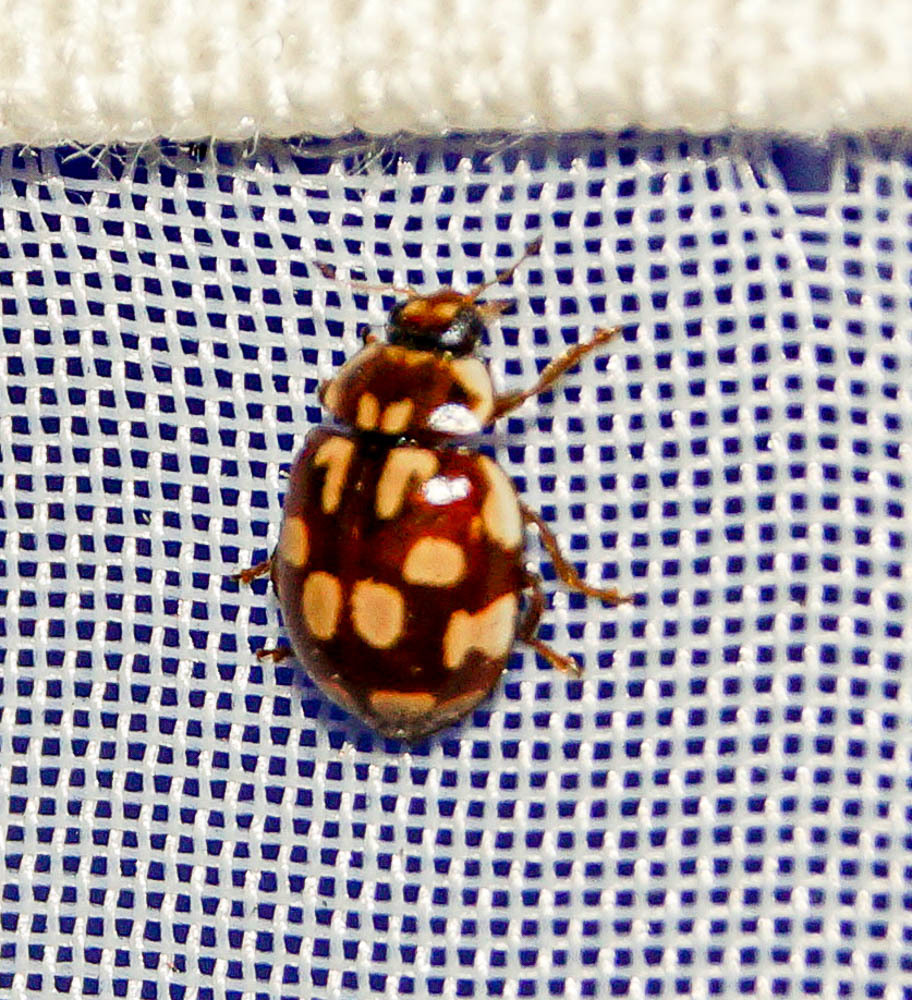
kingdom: Animalia
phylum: Arthropoda
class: Insecta
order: Coleoptera
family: Coccinellidae
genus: Myrrha
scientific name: Myrrha octodecimguttata
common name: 18-spot ladybird
